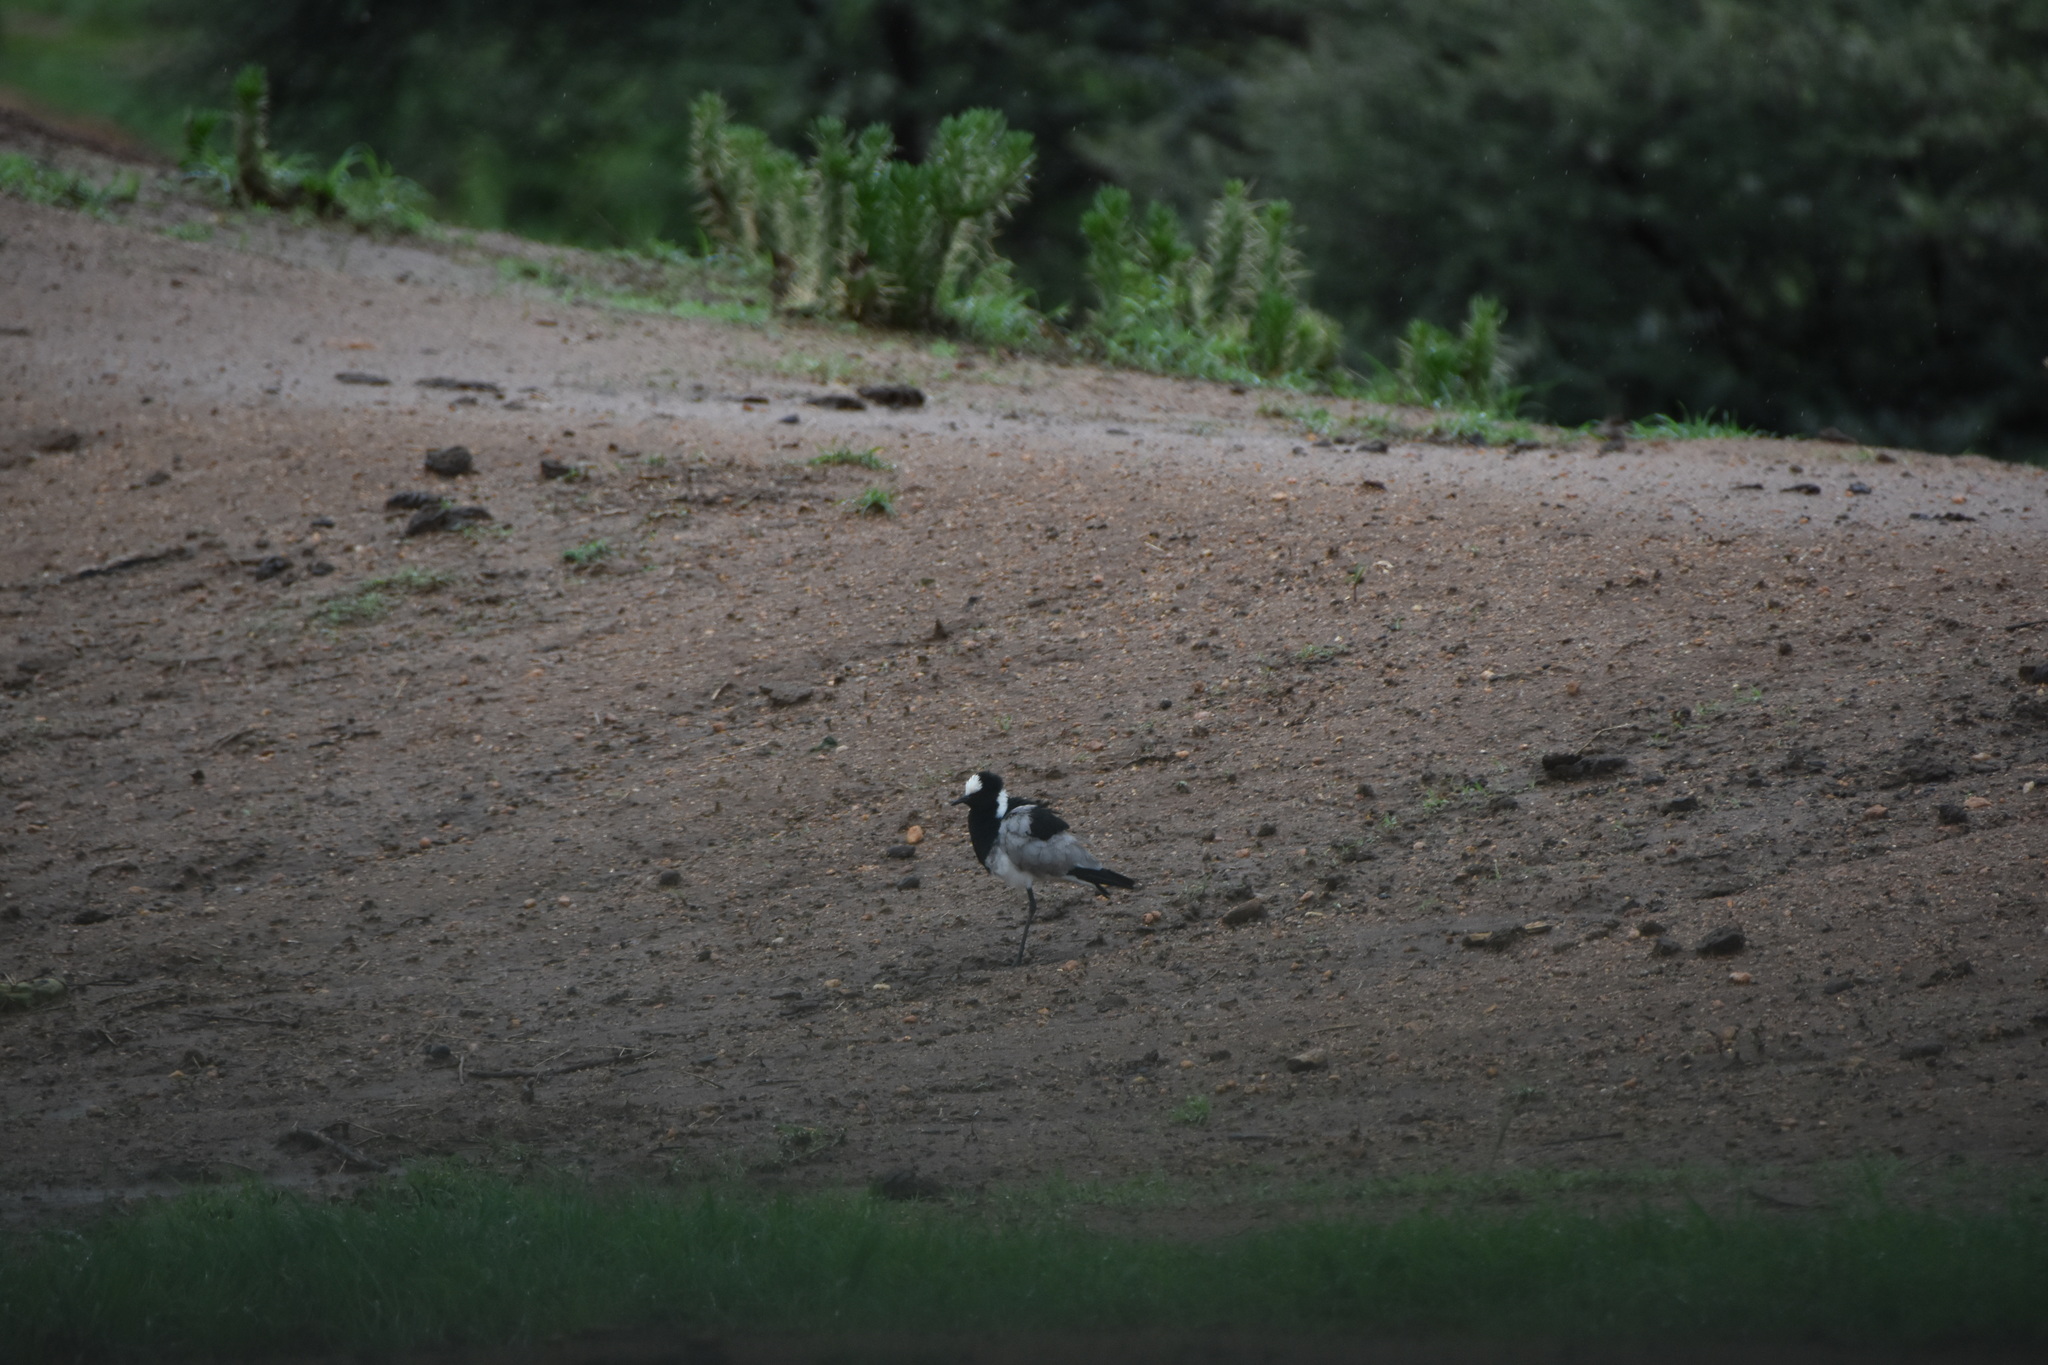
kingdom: Animalia
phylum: Chordata
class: Aves
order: Charadriiformes
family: Charadriidae
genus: Vanellus
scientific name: Vanellus armatus
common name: Blacksmith lapwing
